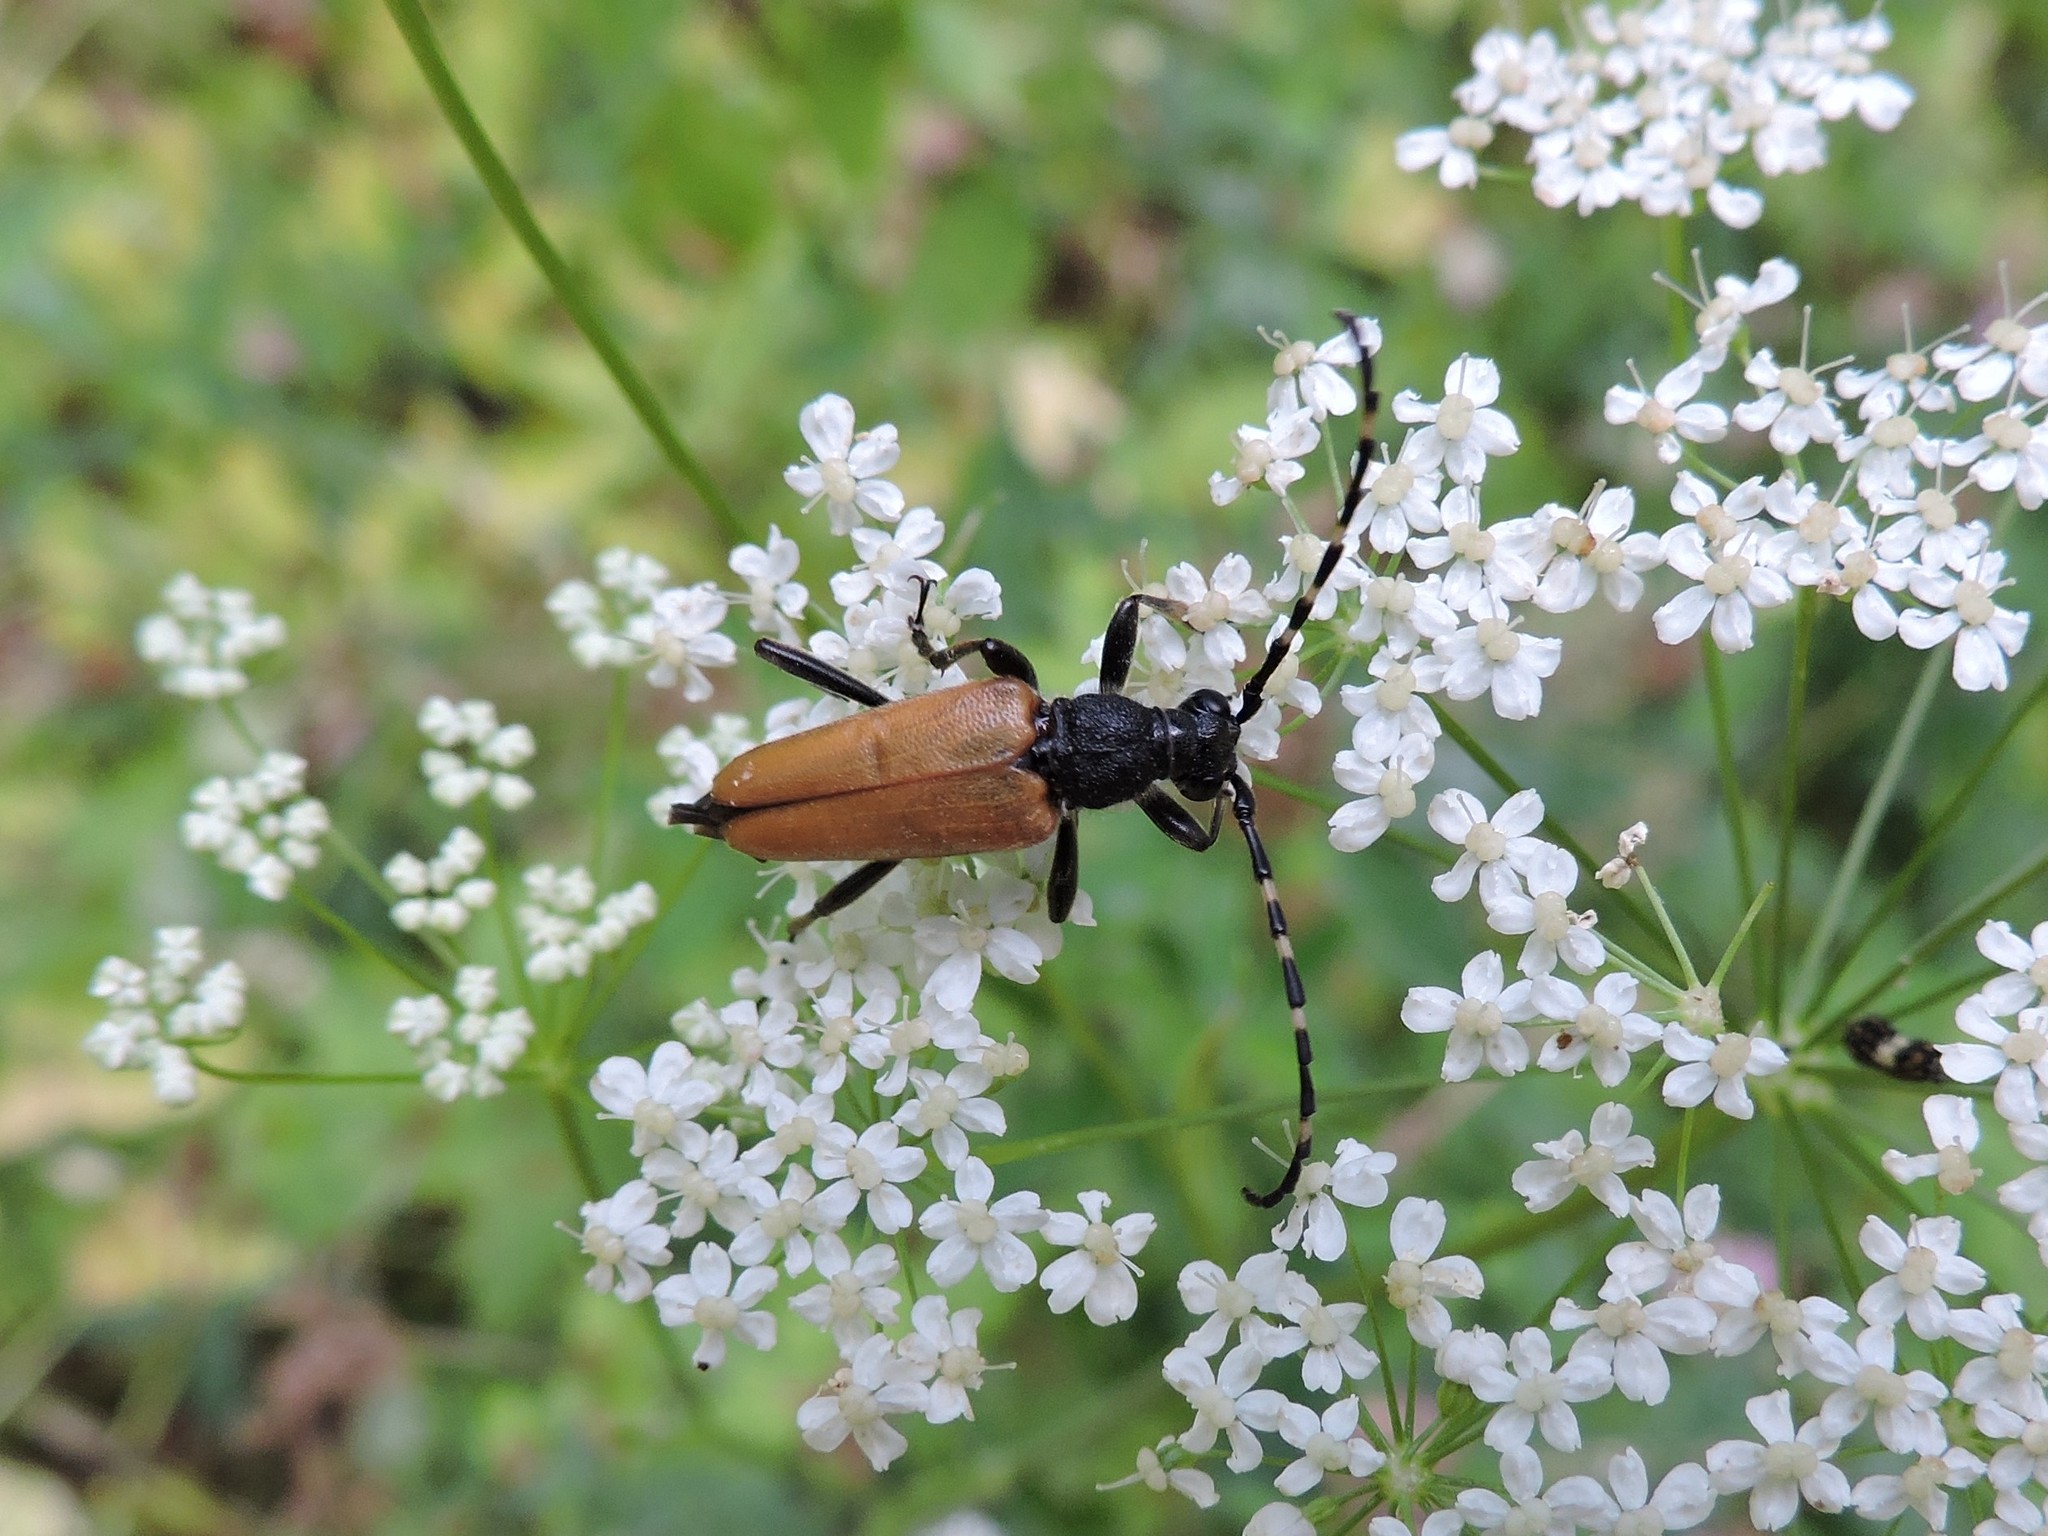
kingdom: Animalia
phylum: Arthropoda
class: Insecta
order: Coleoptera
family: Cerambycidae
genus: Stictoleptura
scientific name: Stictoleptura variicornis
